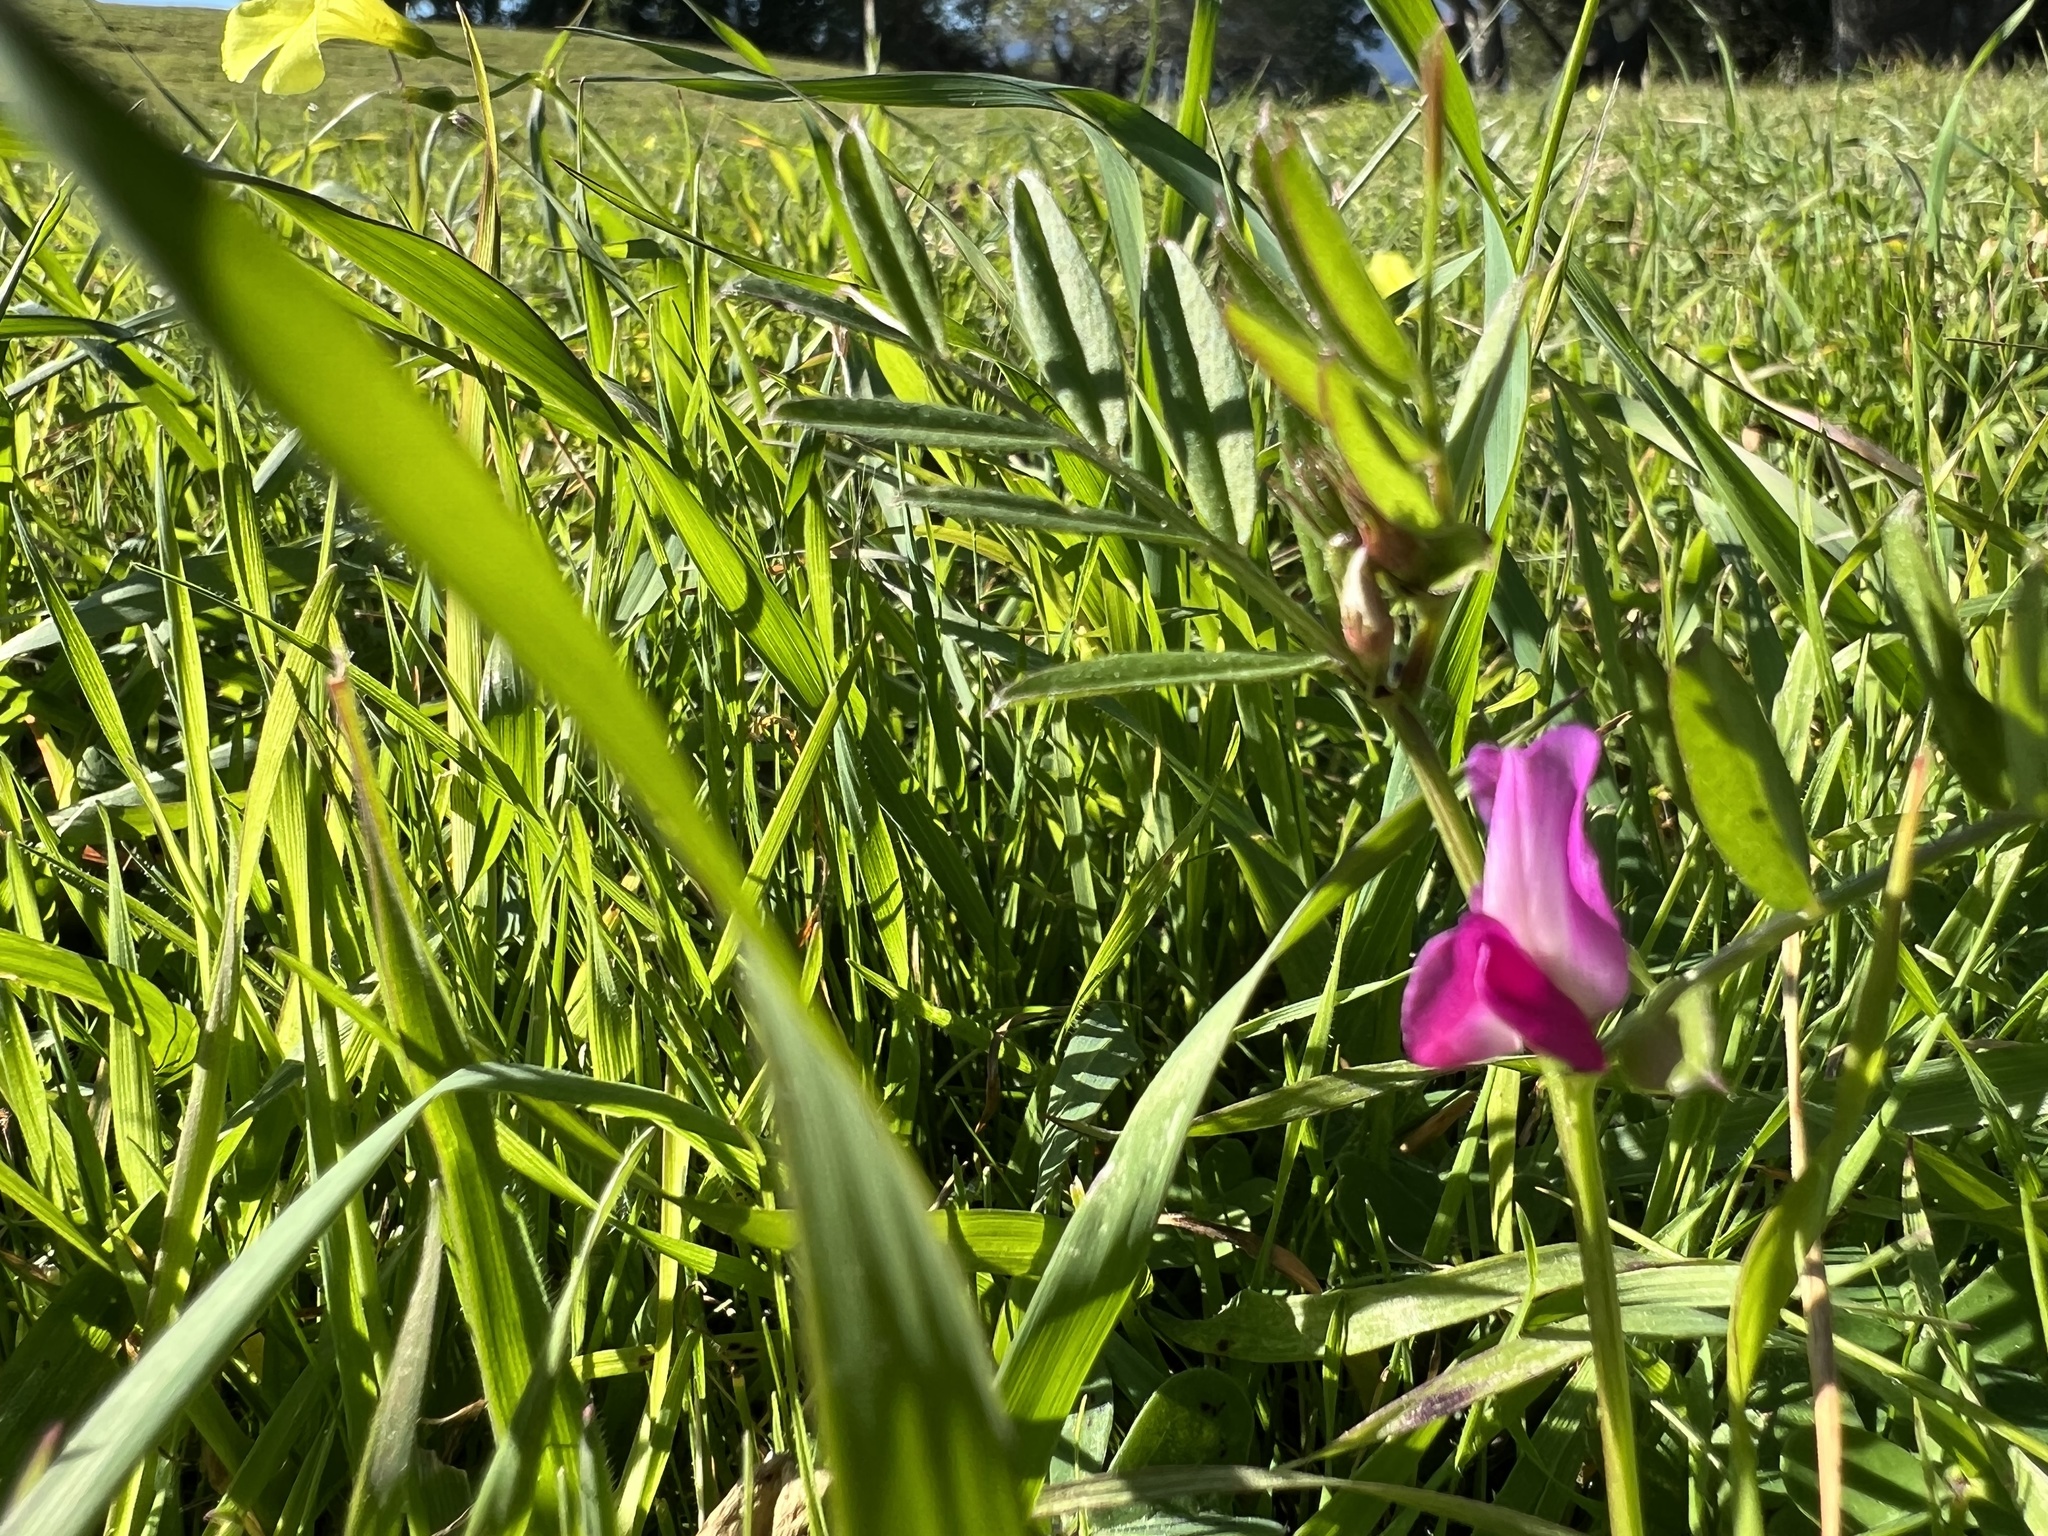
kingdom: Plantae
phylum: Tracheophyta
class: Magnoliopsida
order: Fabales
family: Fabaceae
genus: Vicia
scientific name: Vicia sativa
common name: Garden vetch
